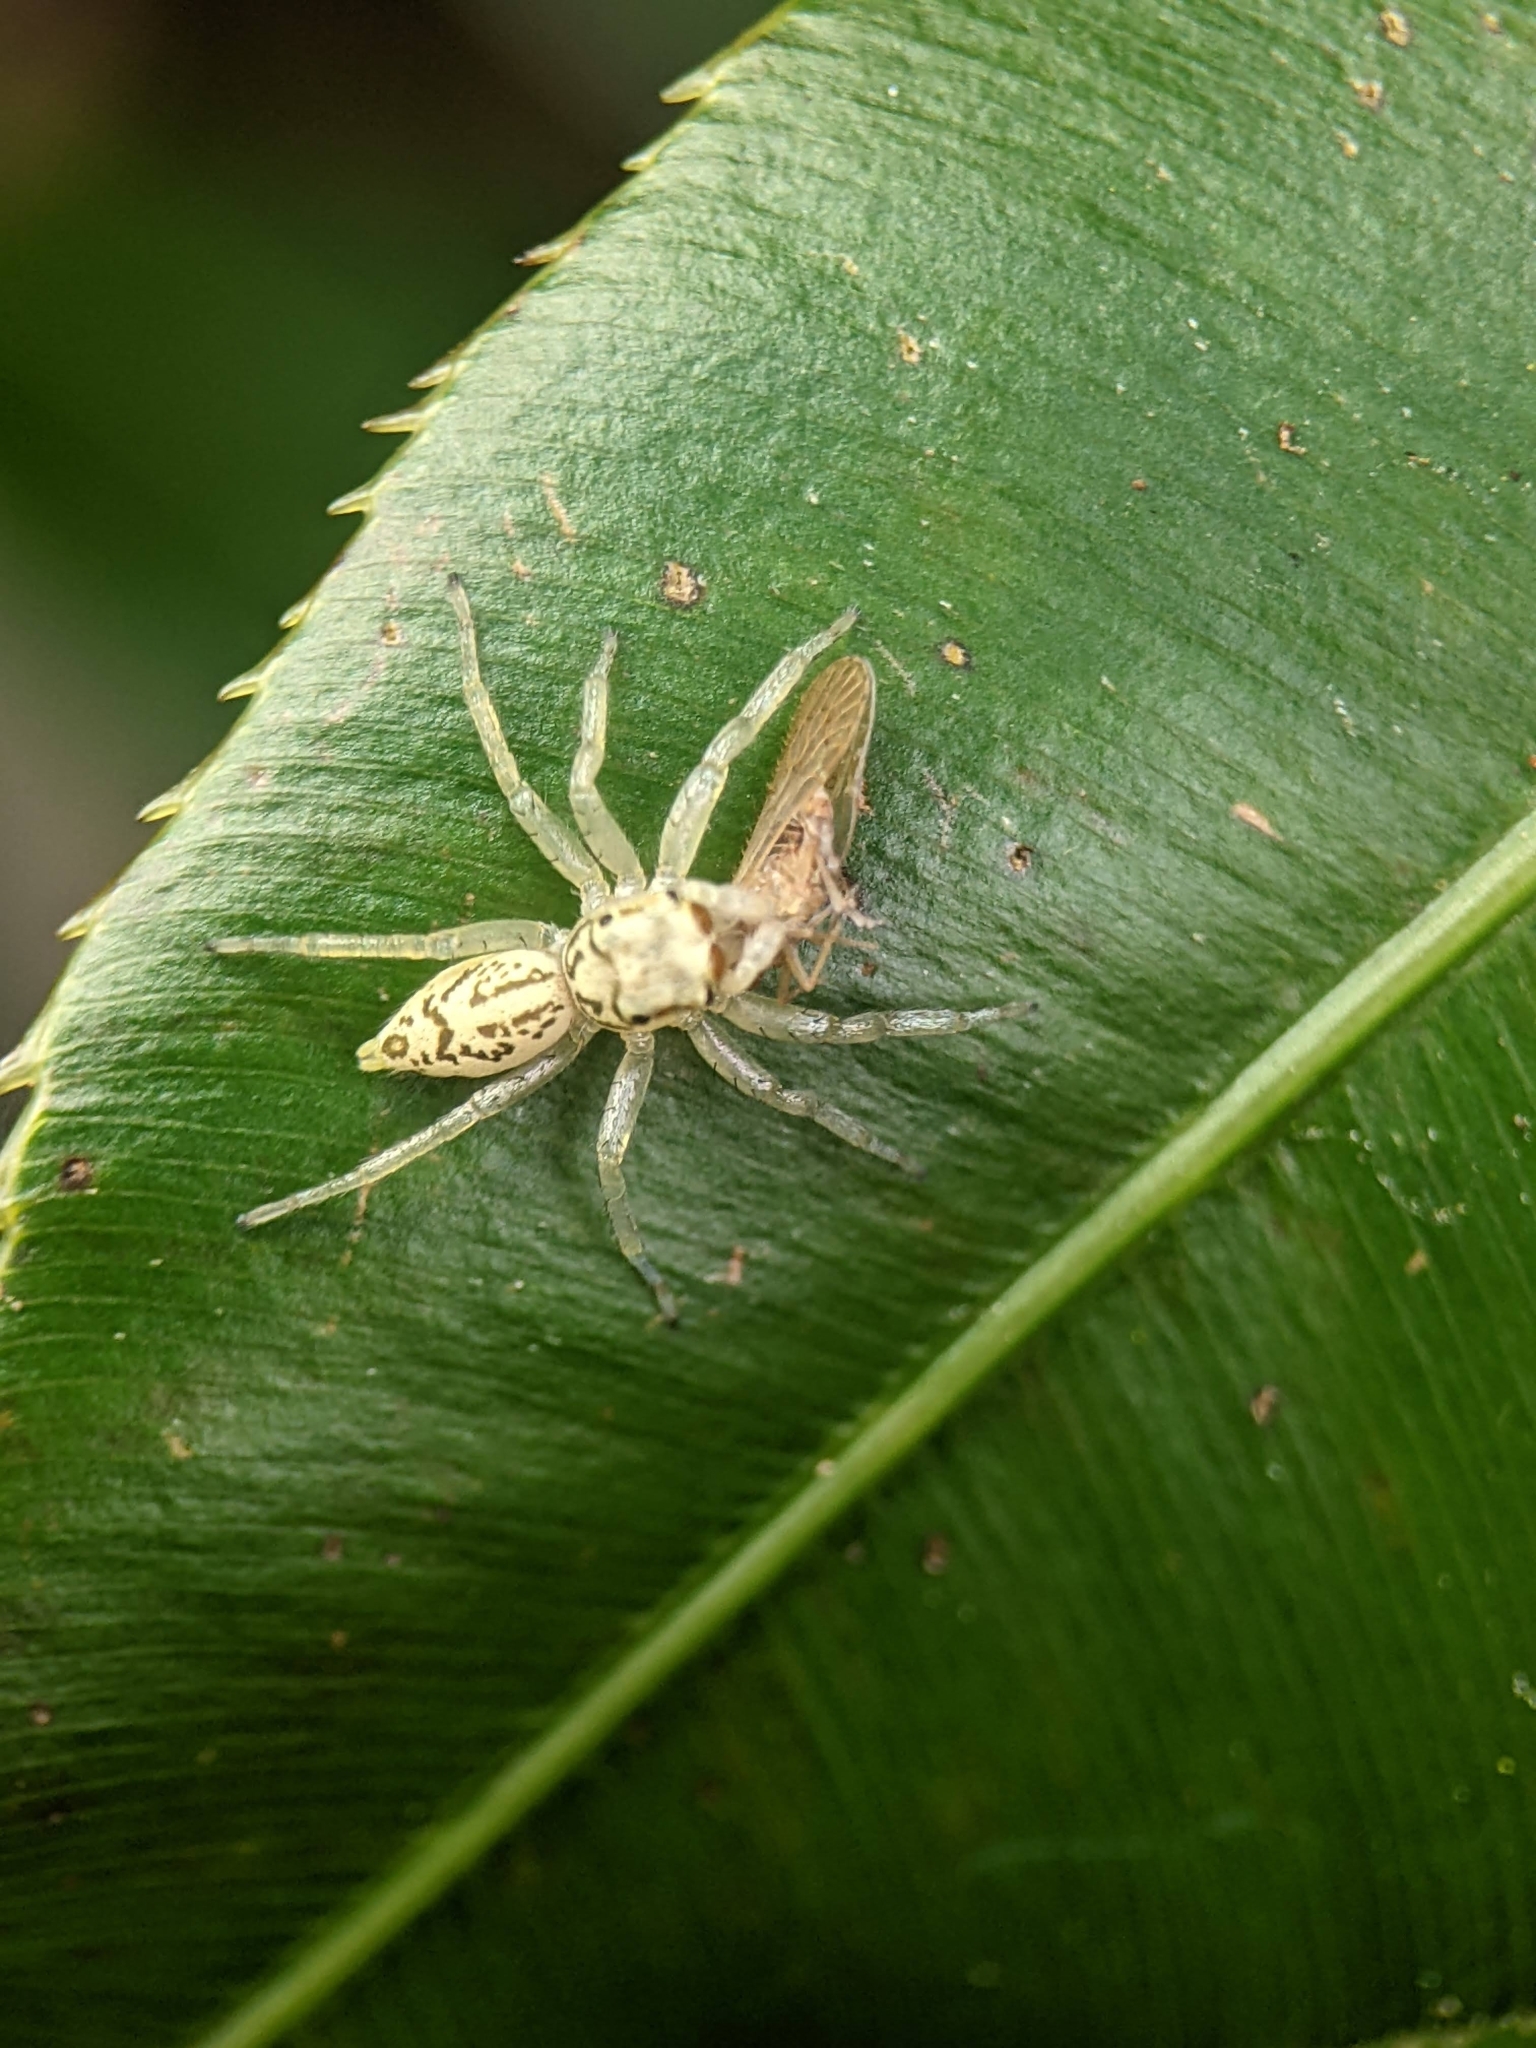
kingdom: Animalia
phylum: Arthropoda
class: Arachnida
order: Araneae
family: Salticidae
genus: Phintelloides
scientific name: Phintelloides versicolor
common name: Jumping spider
